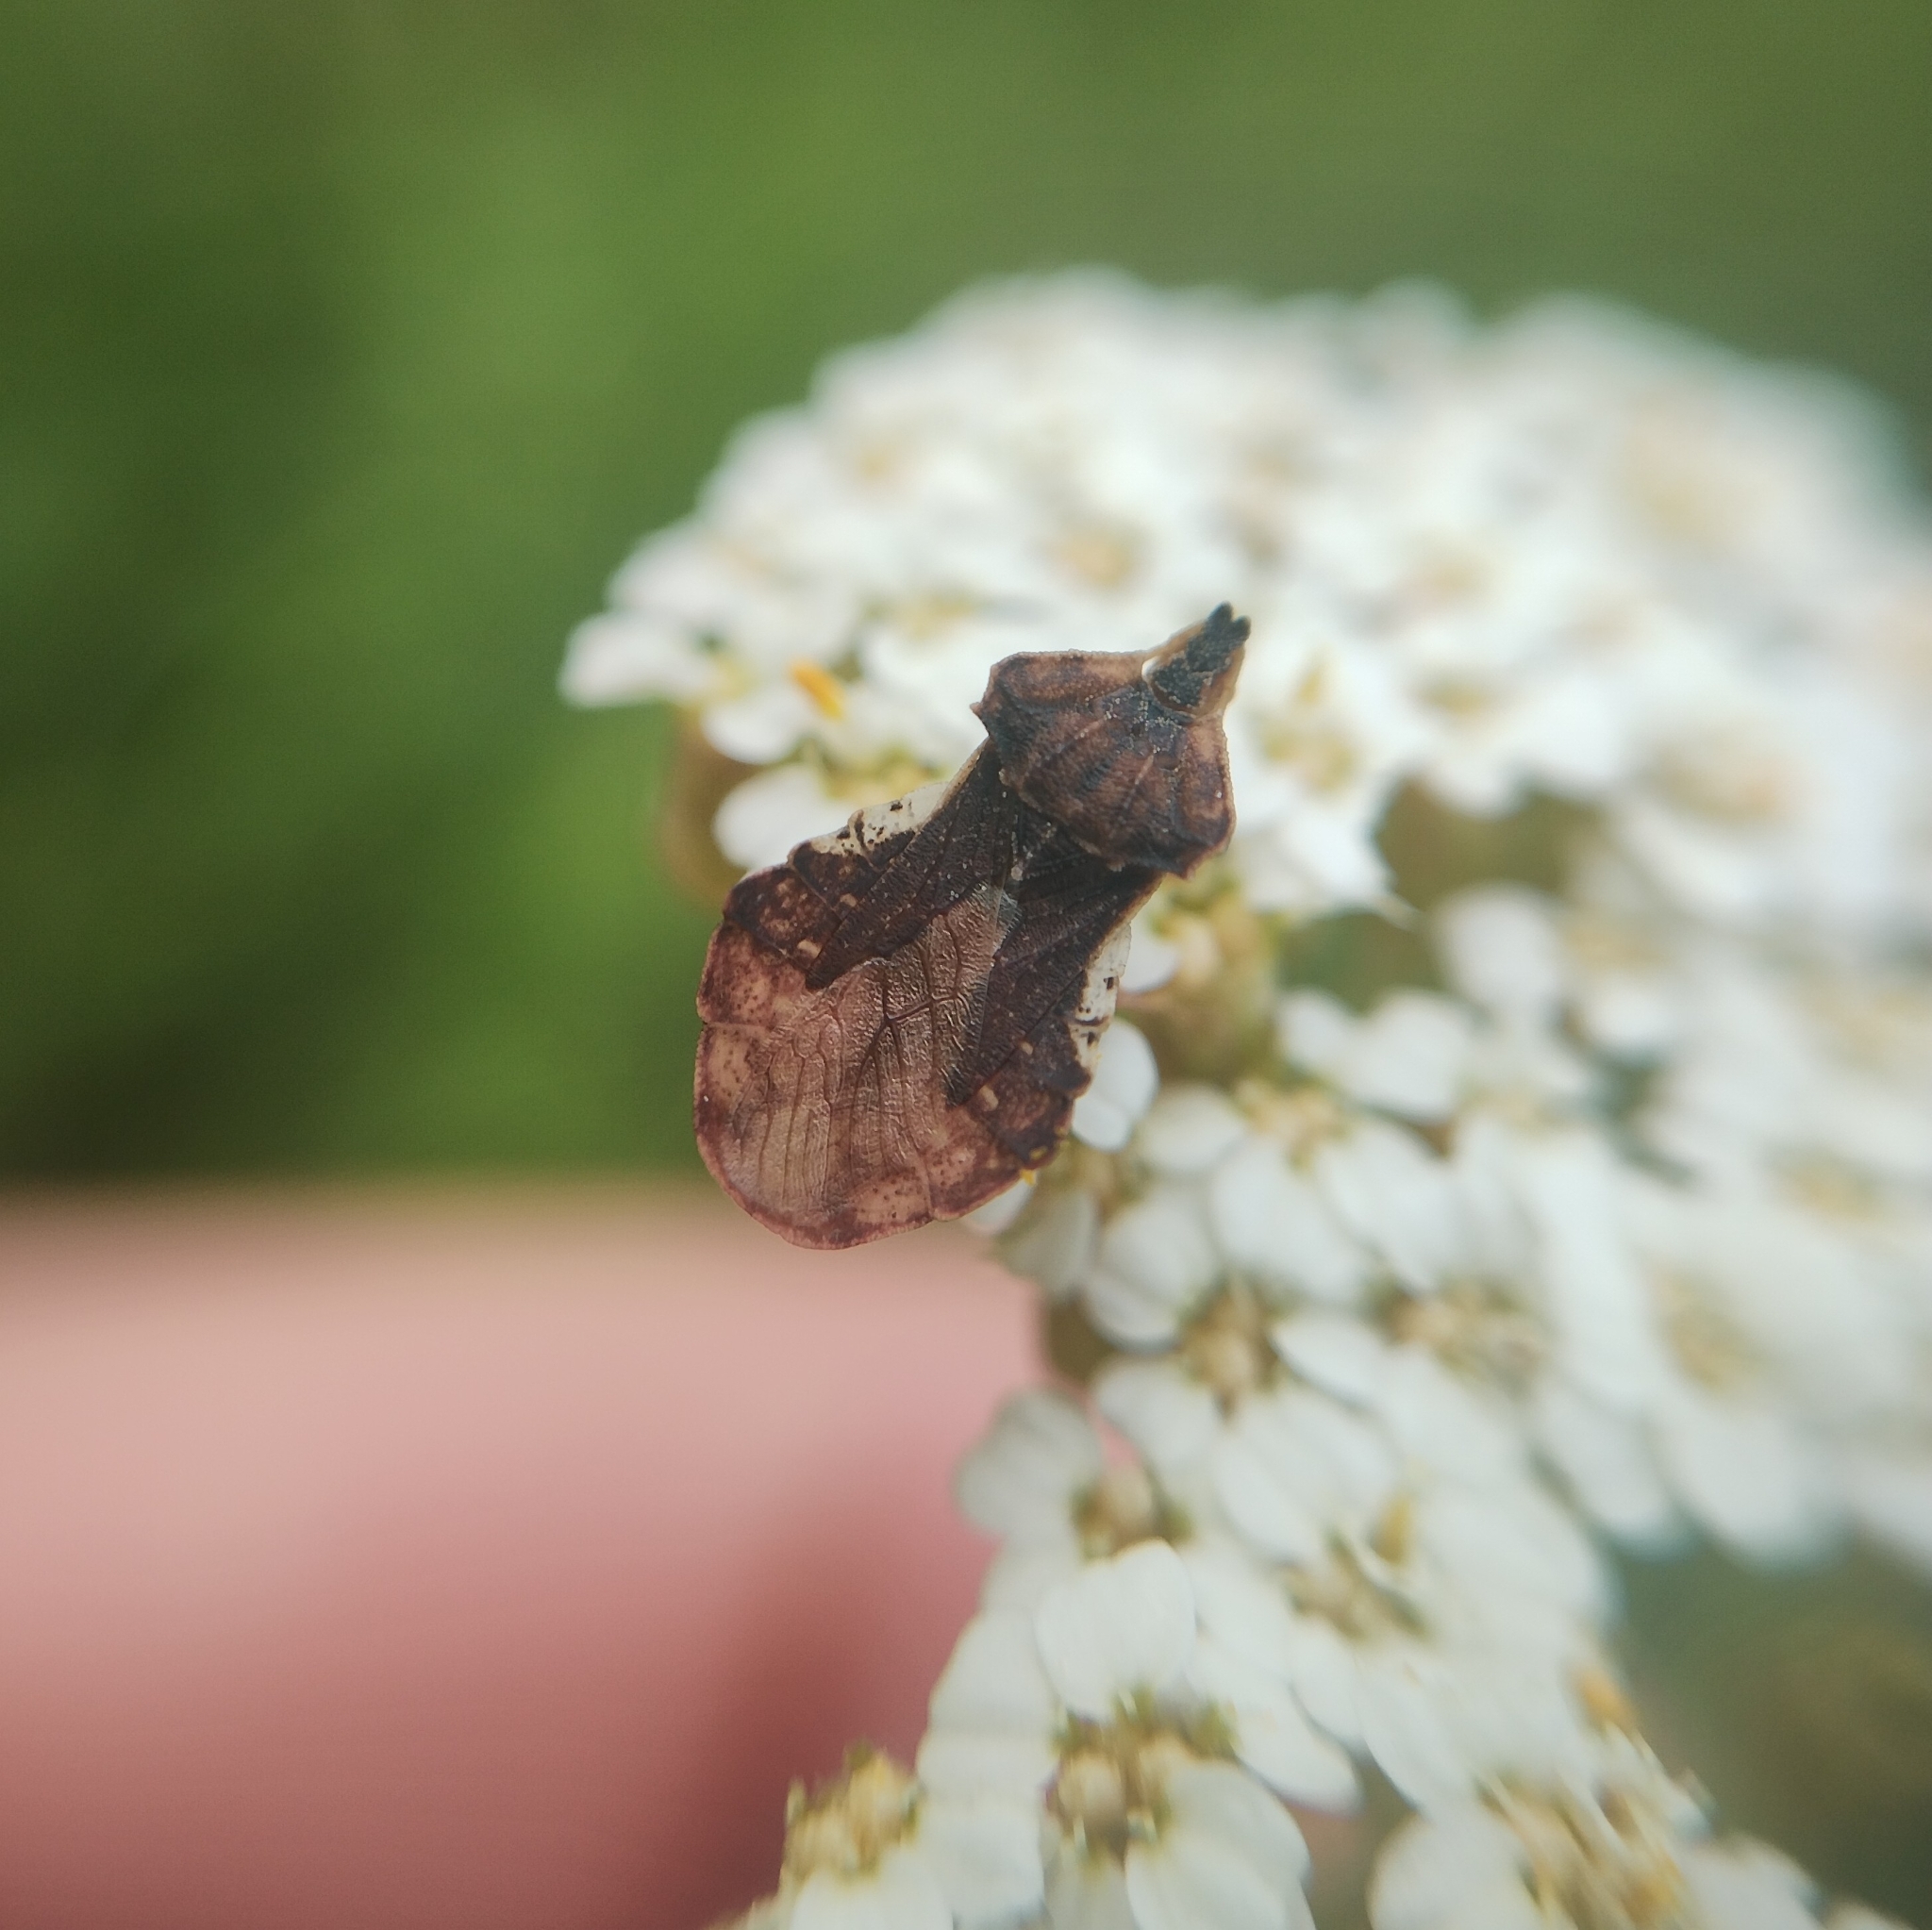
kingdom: Animalia
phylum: Arthropoda
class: Insecta
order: Hemiptera
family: Reduviidae
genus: Phymata
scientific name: Phymata crassipes
